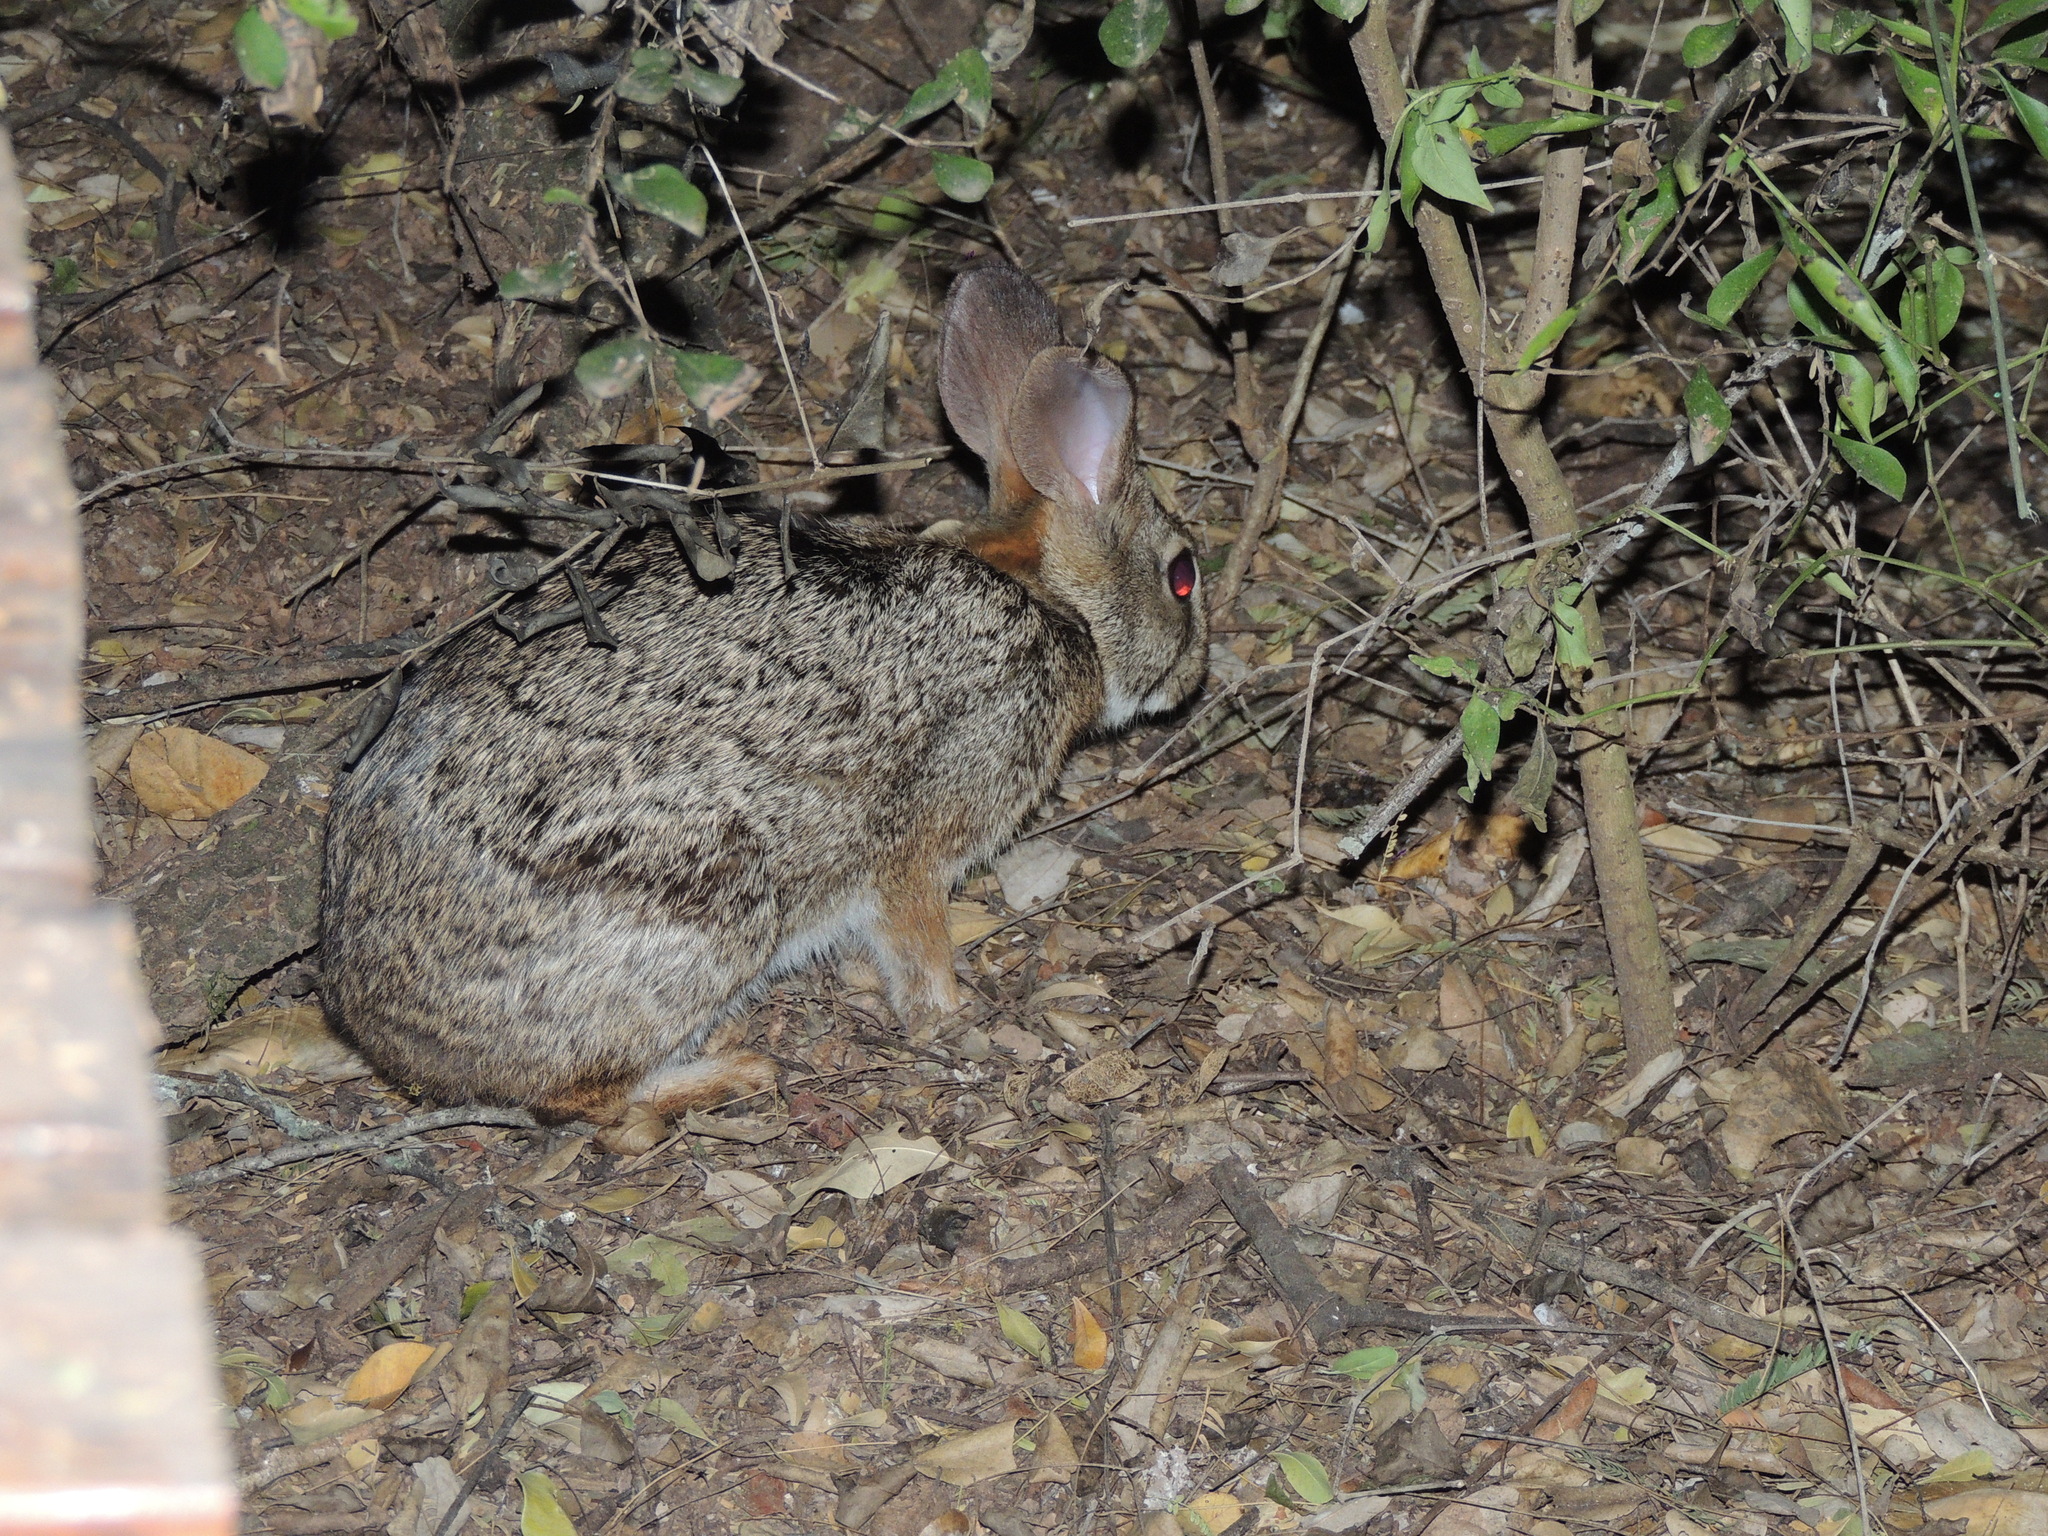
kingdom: Animalia
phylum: Chordata
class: Mammalia
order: Lagomorpha
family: Leporidae
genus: Sylvilagus
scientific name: Sylvilagus brasiliensis
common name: Tapeti
